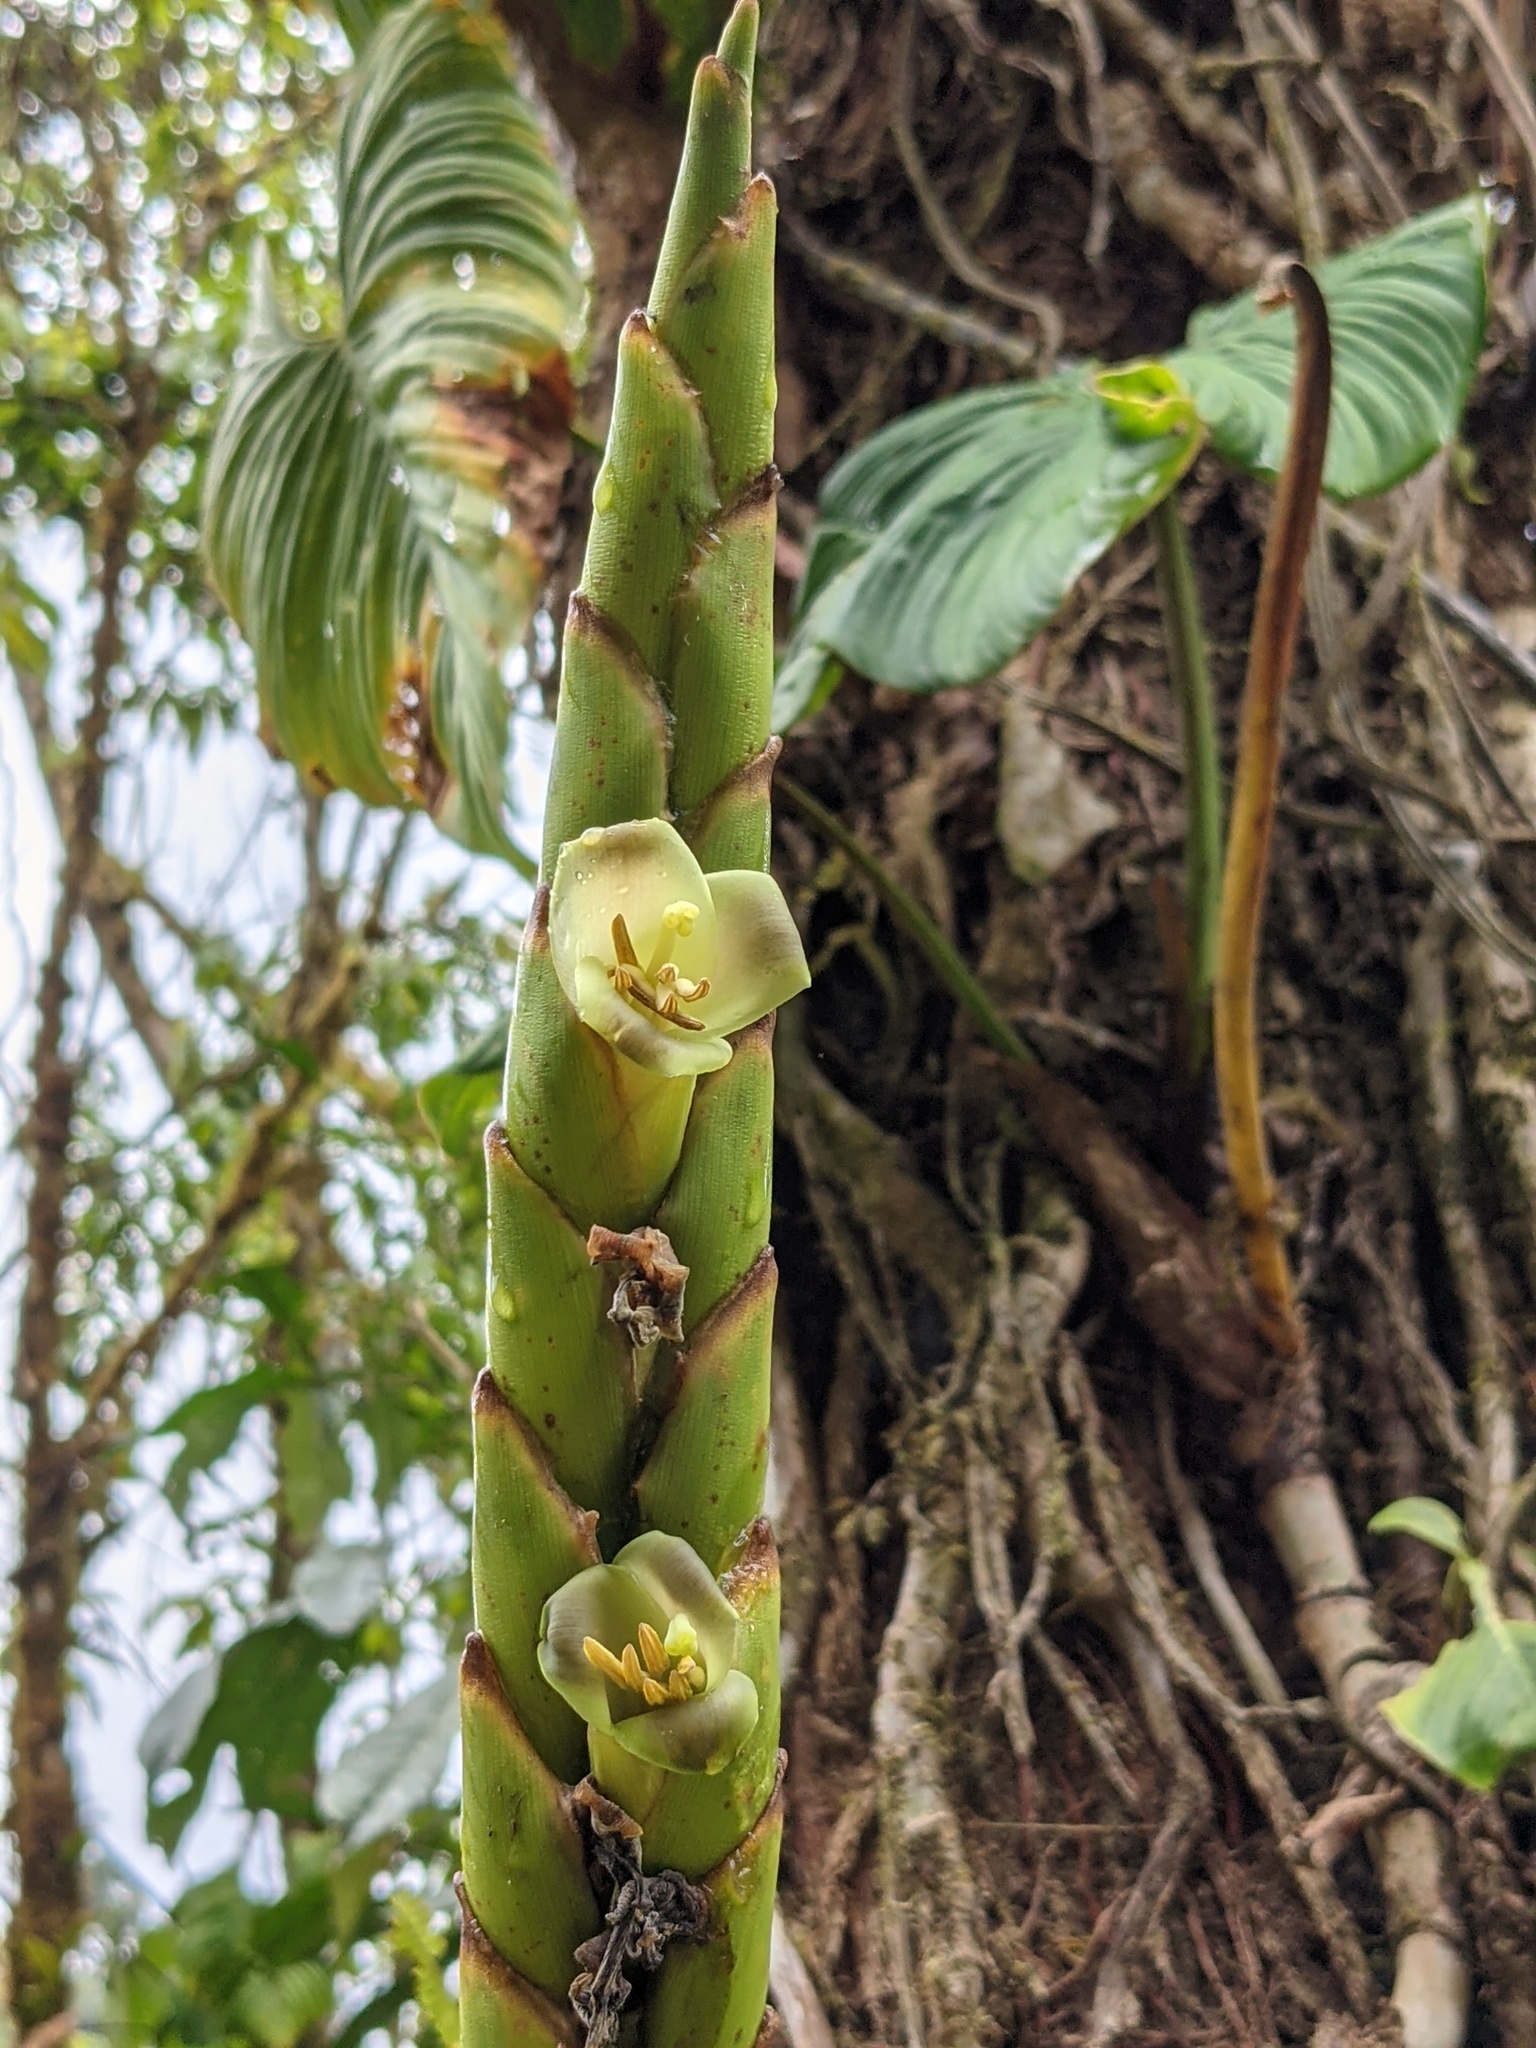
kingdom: Plantae
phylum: Tracheophyta
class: Liliopsida
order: Poales
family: Bromeliaceae
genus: Werauhia
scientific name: Werauhia gladioliflora
